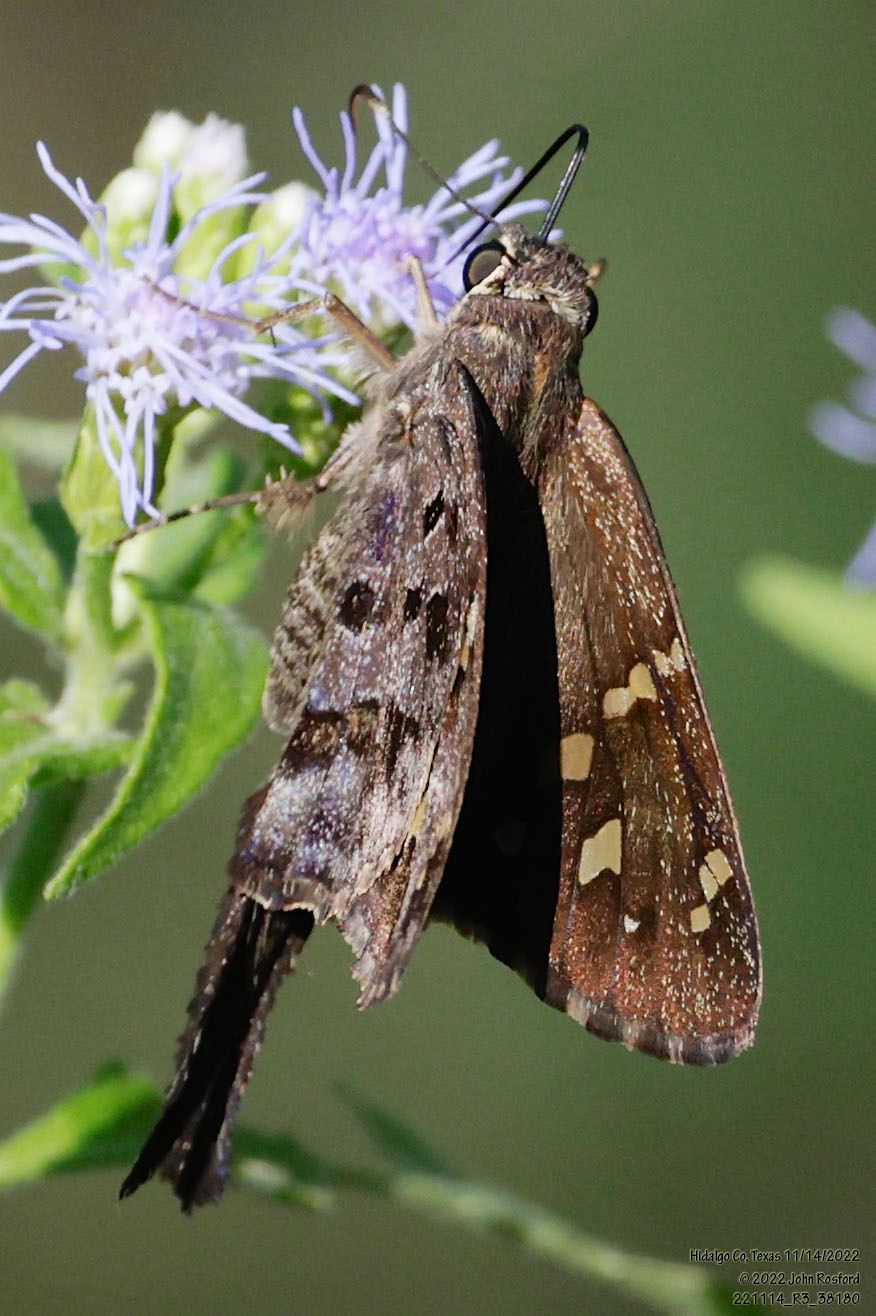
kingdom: Animalia
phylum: Arthropoda
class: Insecta
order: Lepidoptera
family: Hesperiidae
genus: Thorybes
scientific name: Thorybes
